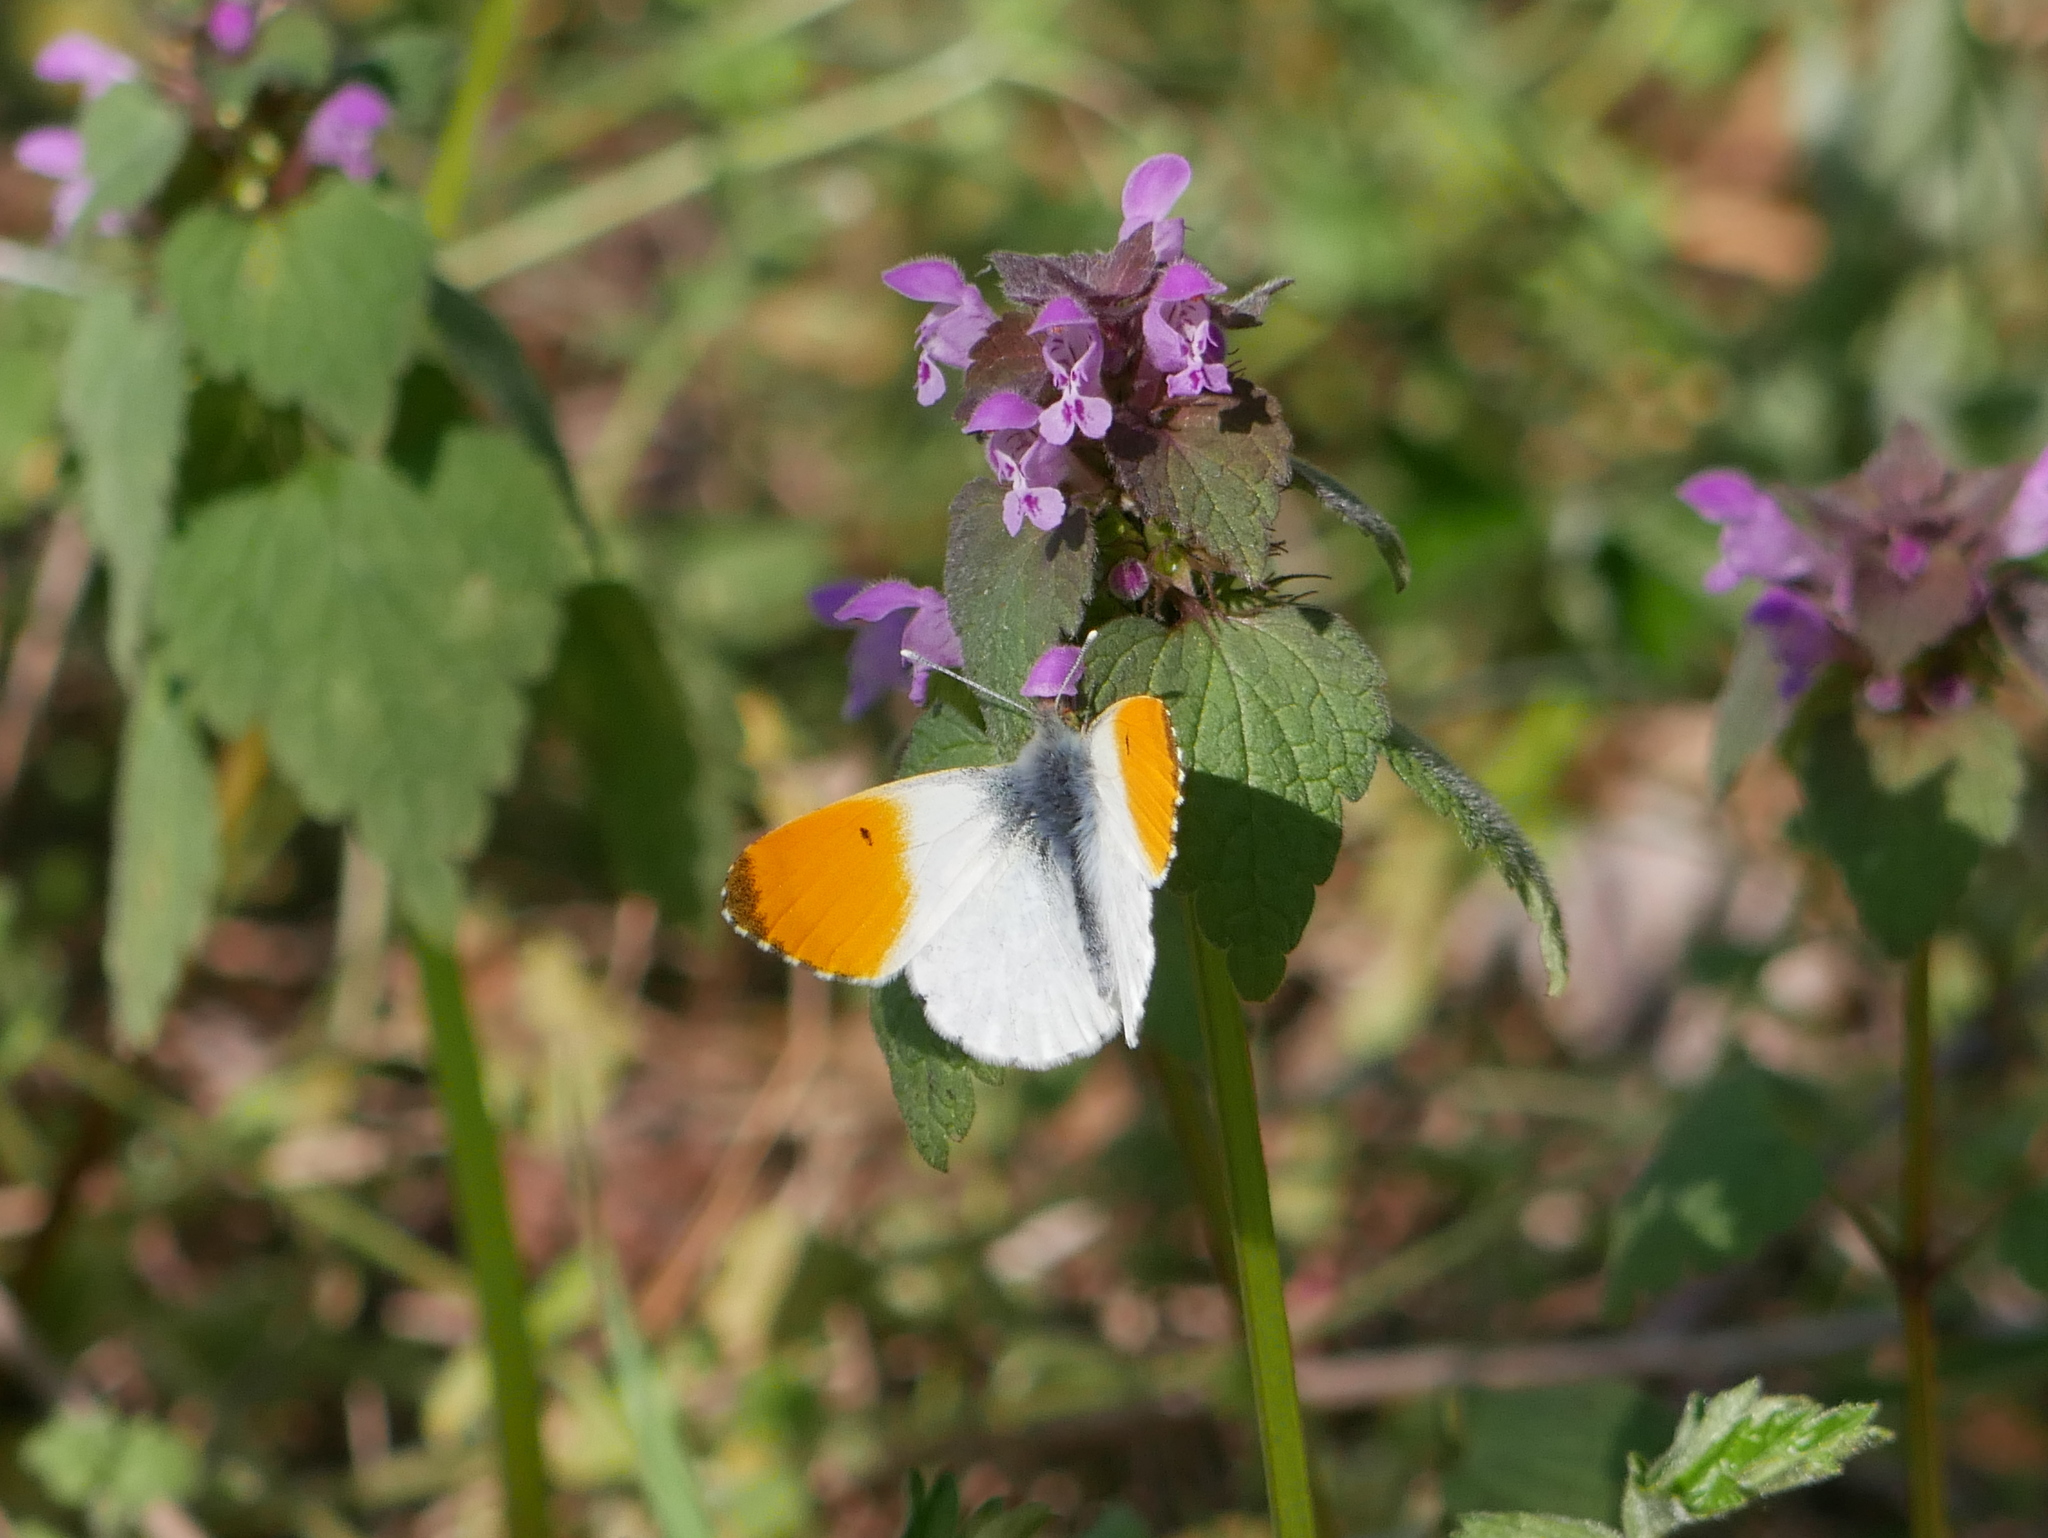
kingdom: Animalia
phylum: Arthropoda
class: Insecta
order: Lepidoptera
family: Pieridae
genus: Anthocharis
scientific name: Anthocharis cardamines
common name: Orange-tip
